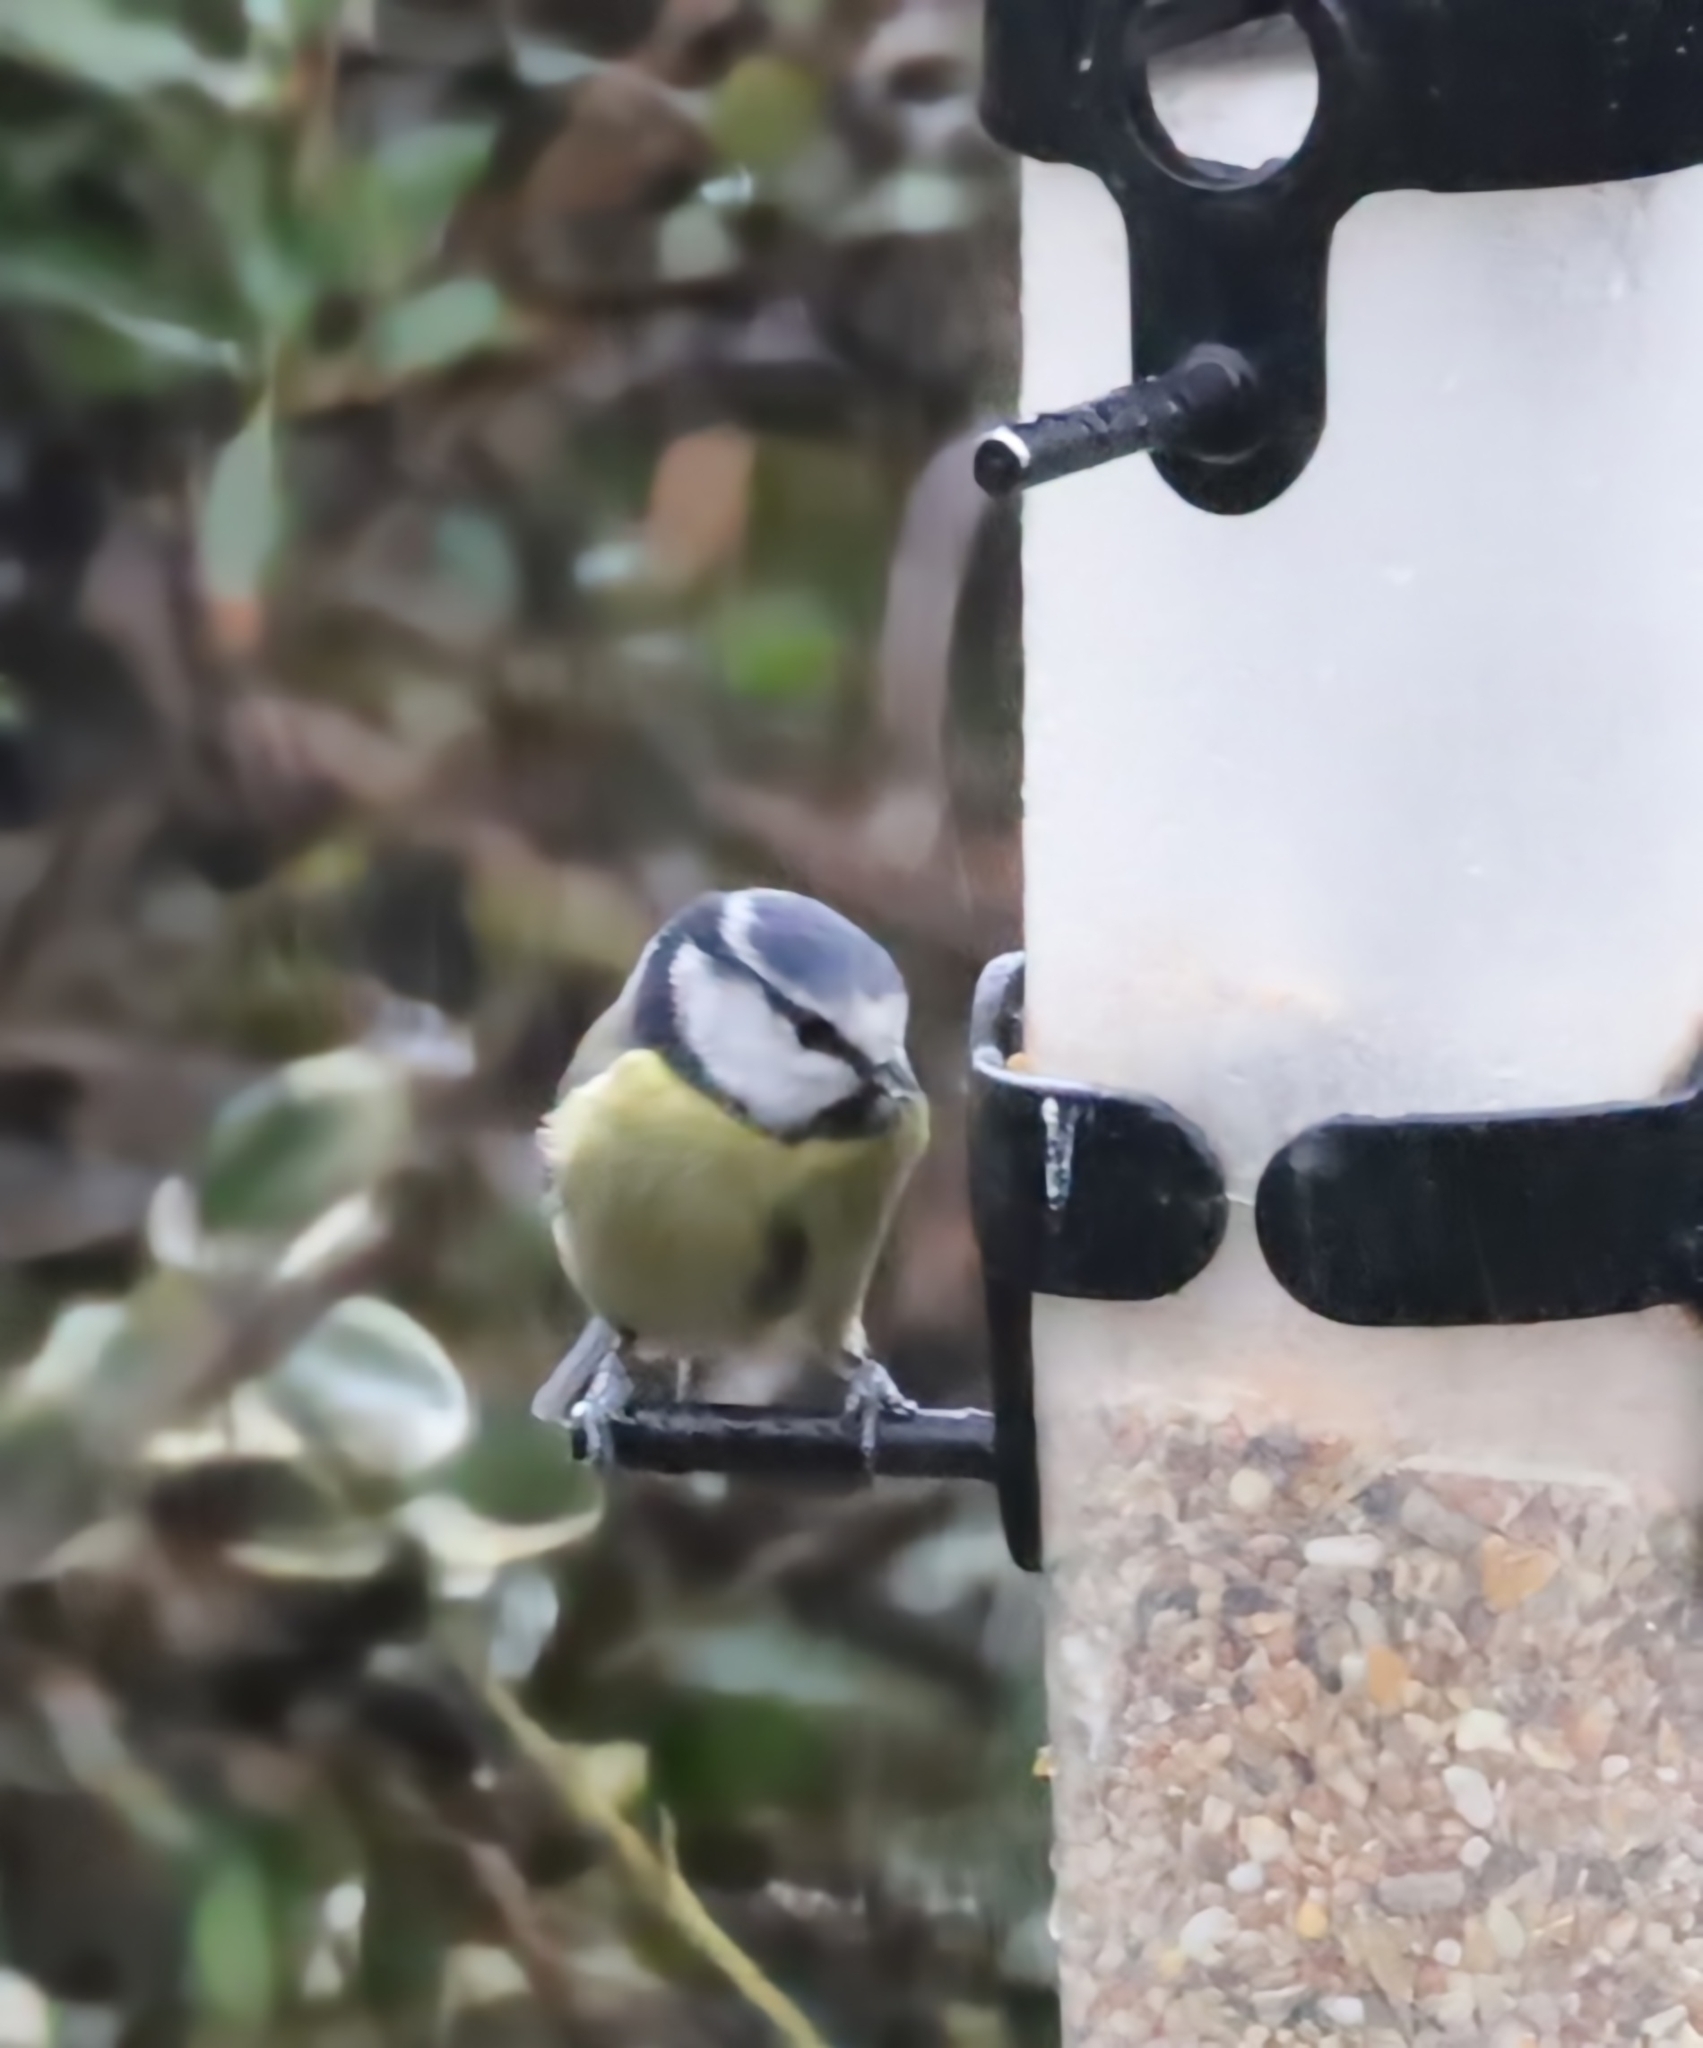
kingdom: Animalia
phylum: Chordata
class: Aves
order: Passeriformes
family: Paridae
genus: Cyanistes
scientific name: Cyanistes caeruleus
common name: Eurasian blue tit
